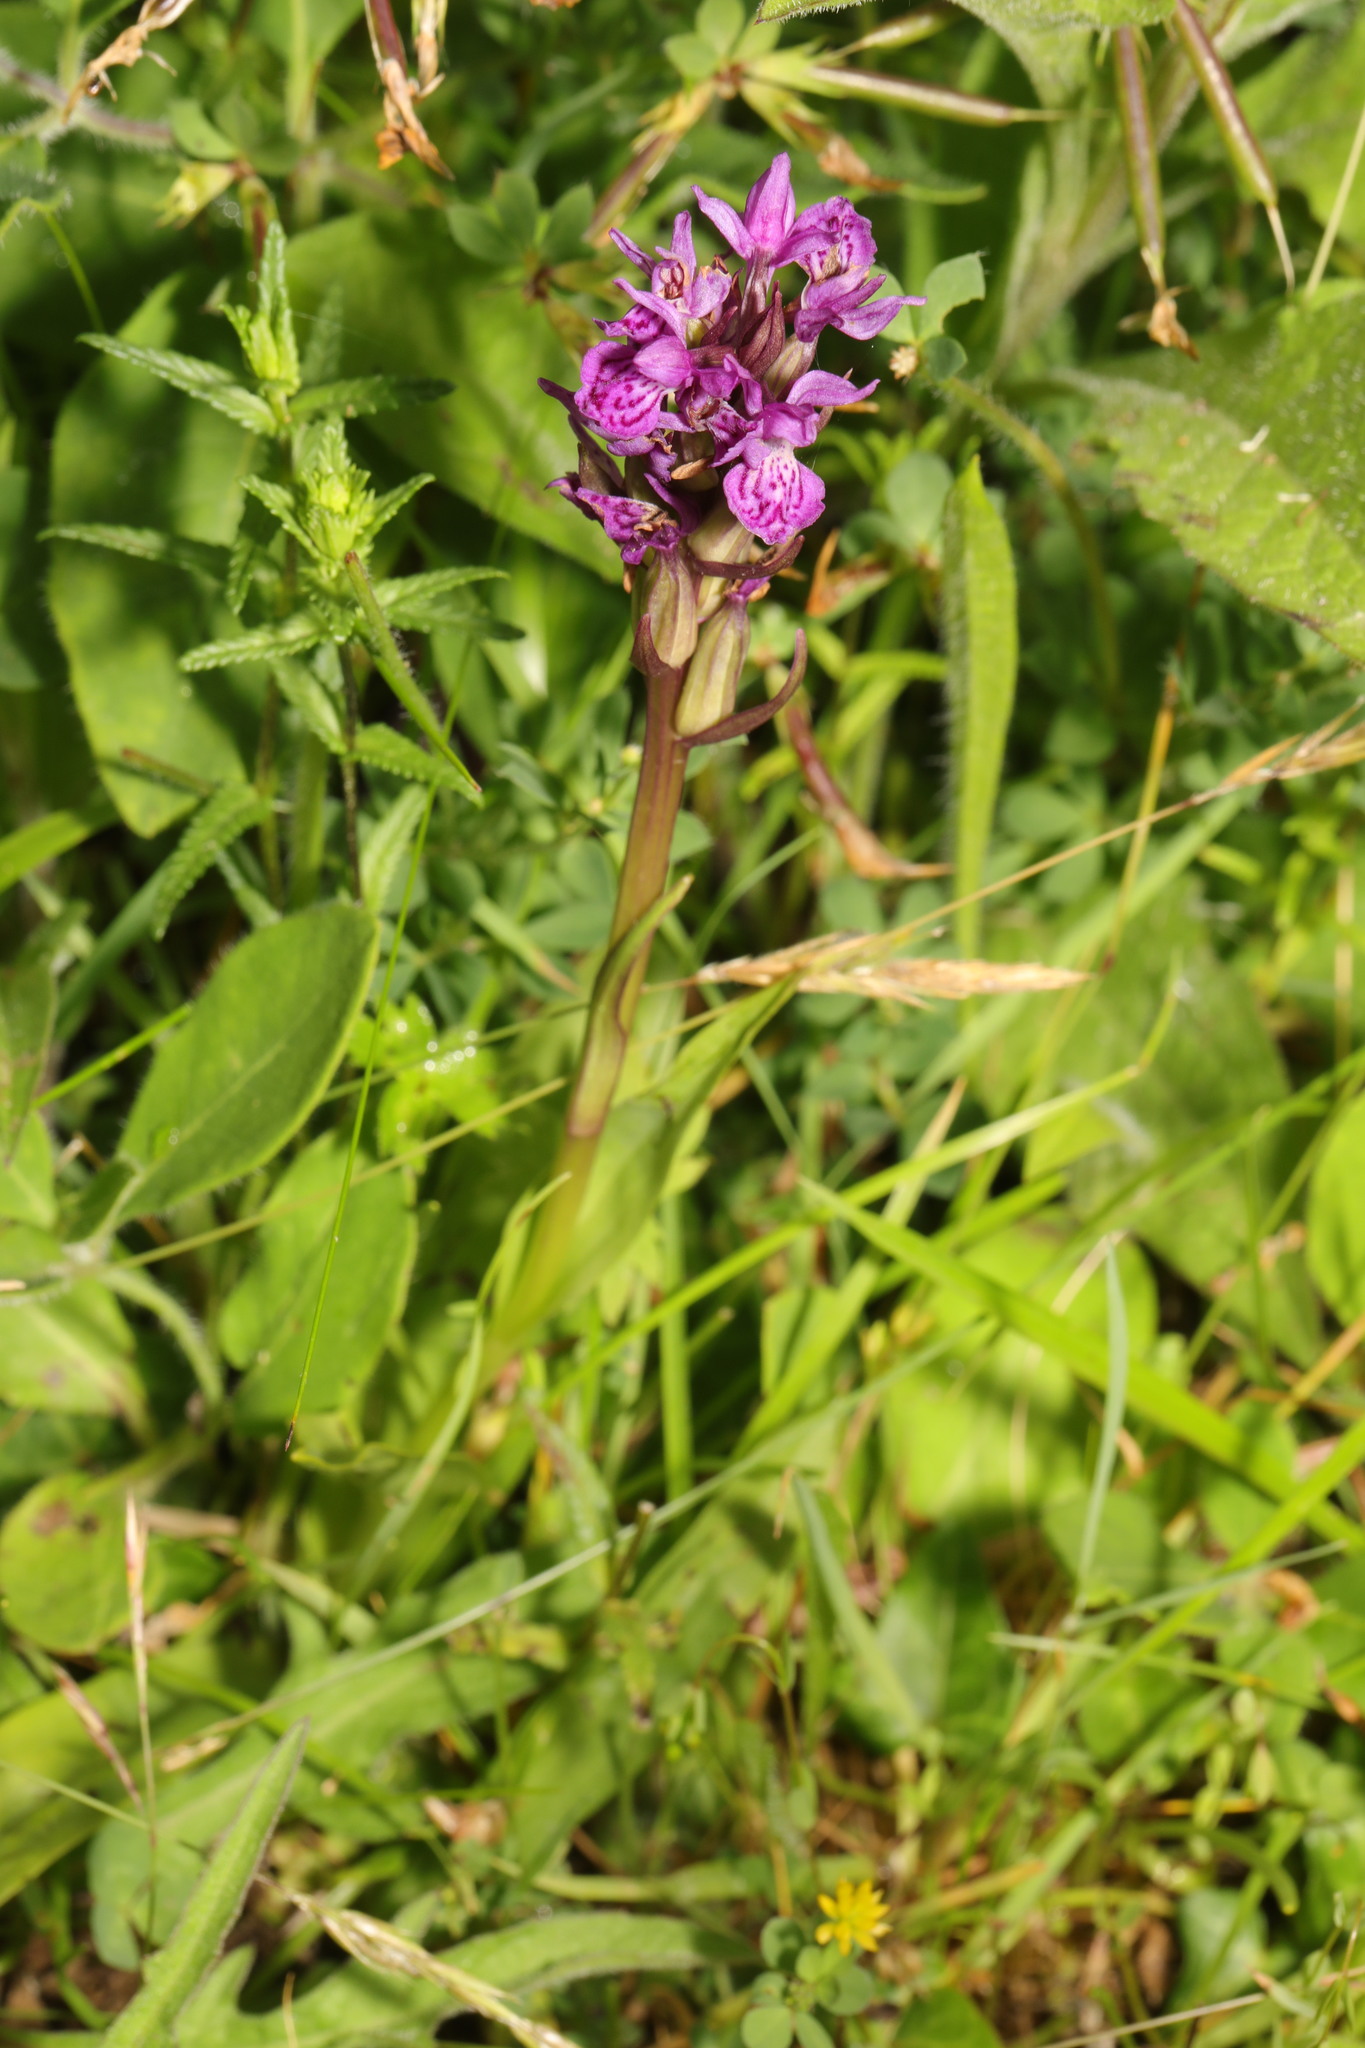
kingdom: Plantae
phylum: Tracheophyta
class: Liliopsida
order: Asparagales
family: Orchidaceae
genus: Dactylorhiza
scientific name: Dactylorhiza majalis
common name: Marsh orchid
